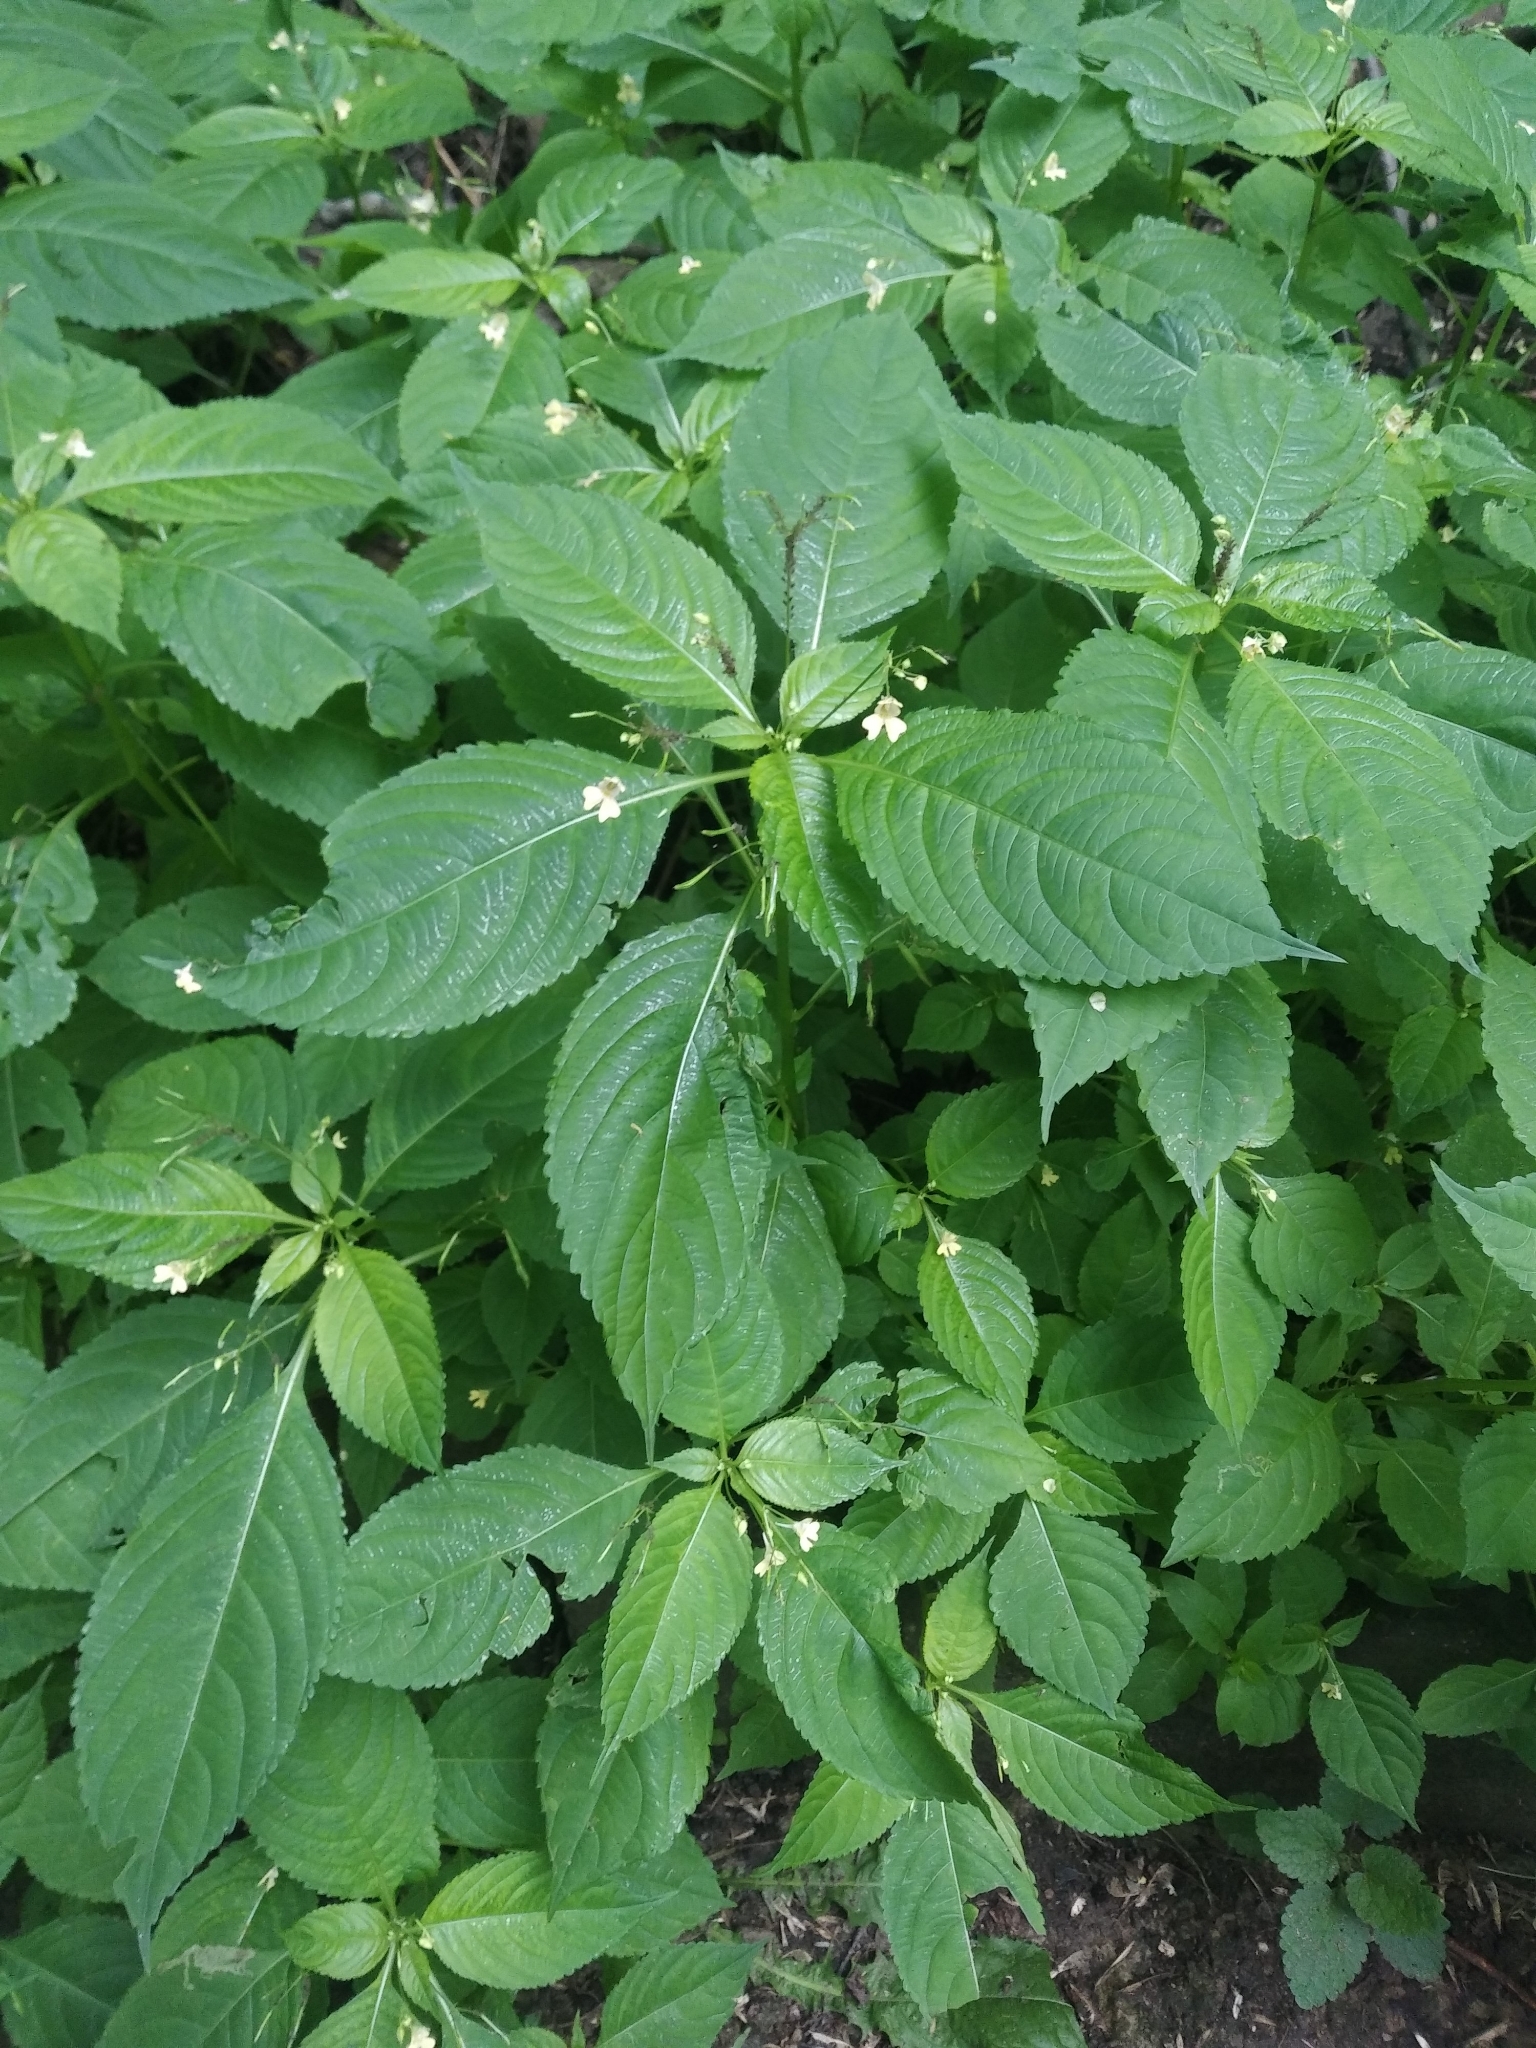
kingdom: Plantae
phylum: Tracheophyta
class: Magnoliopsida
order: Ericales
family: Balsaminaceae
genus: Impatiens
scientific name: Impatiens parviflora
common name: Small balsam
